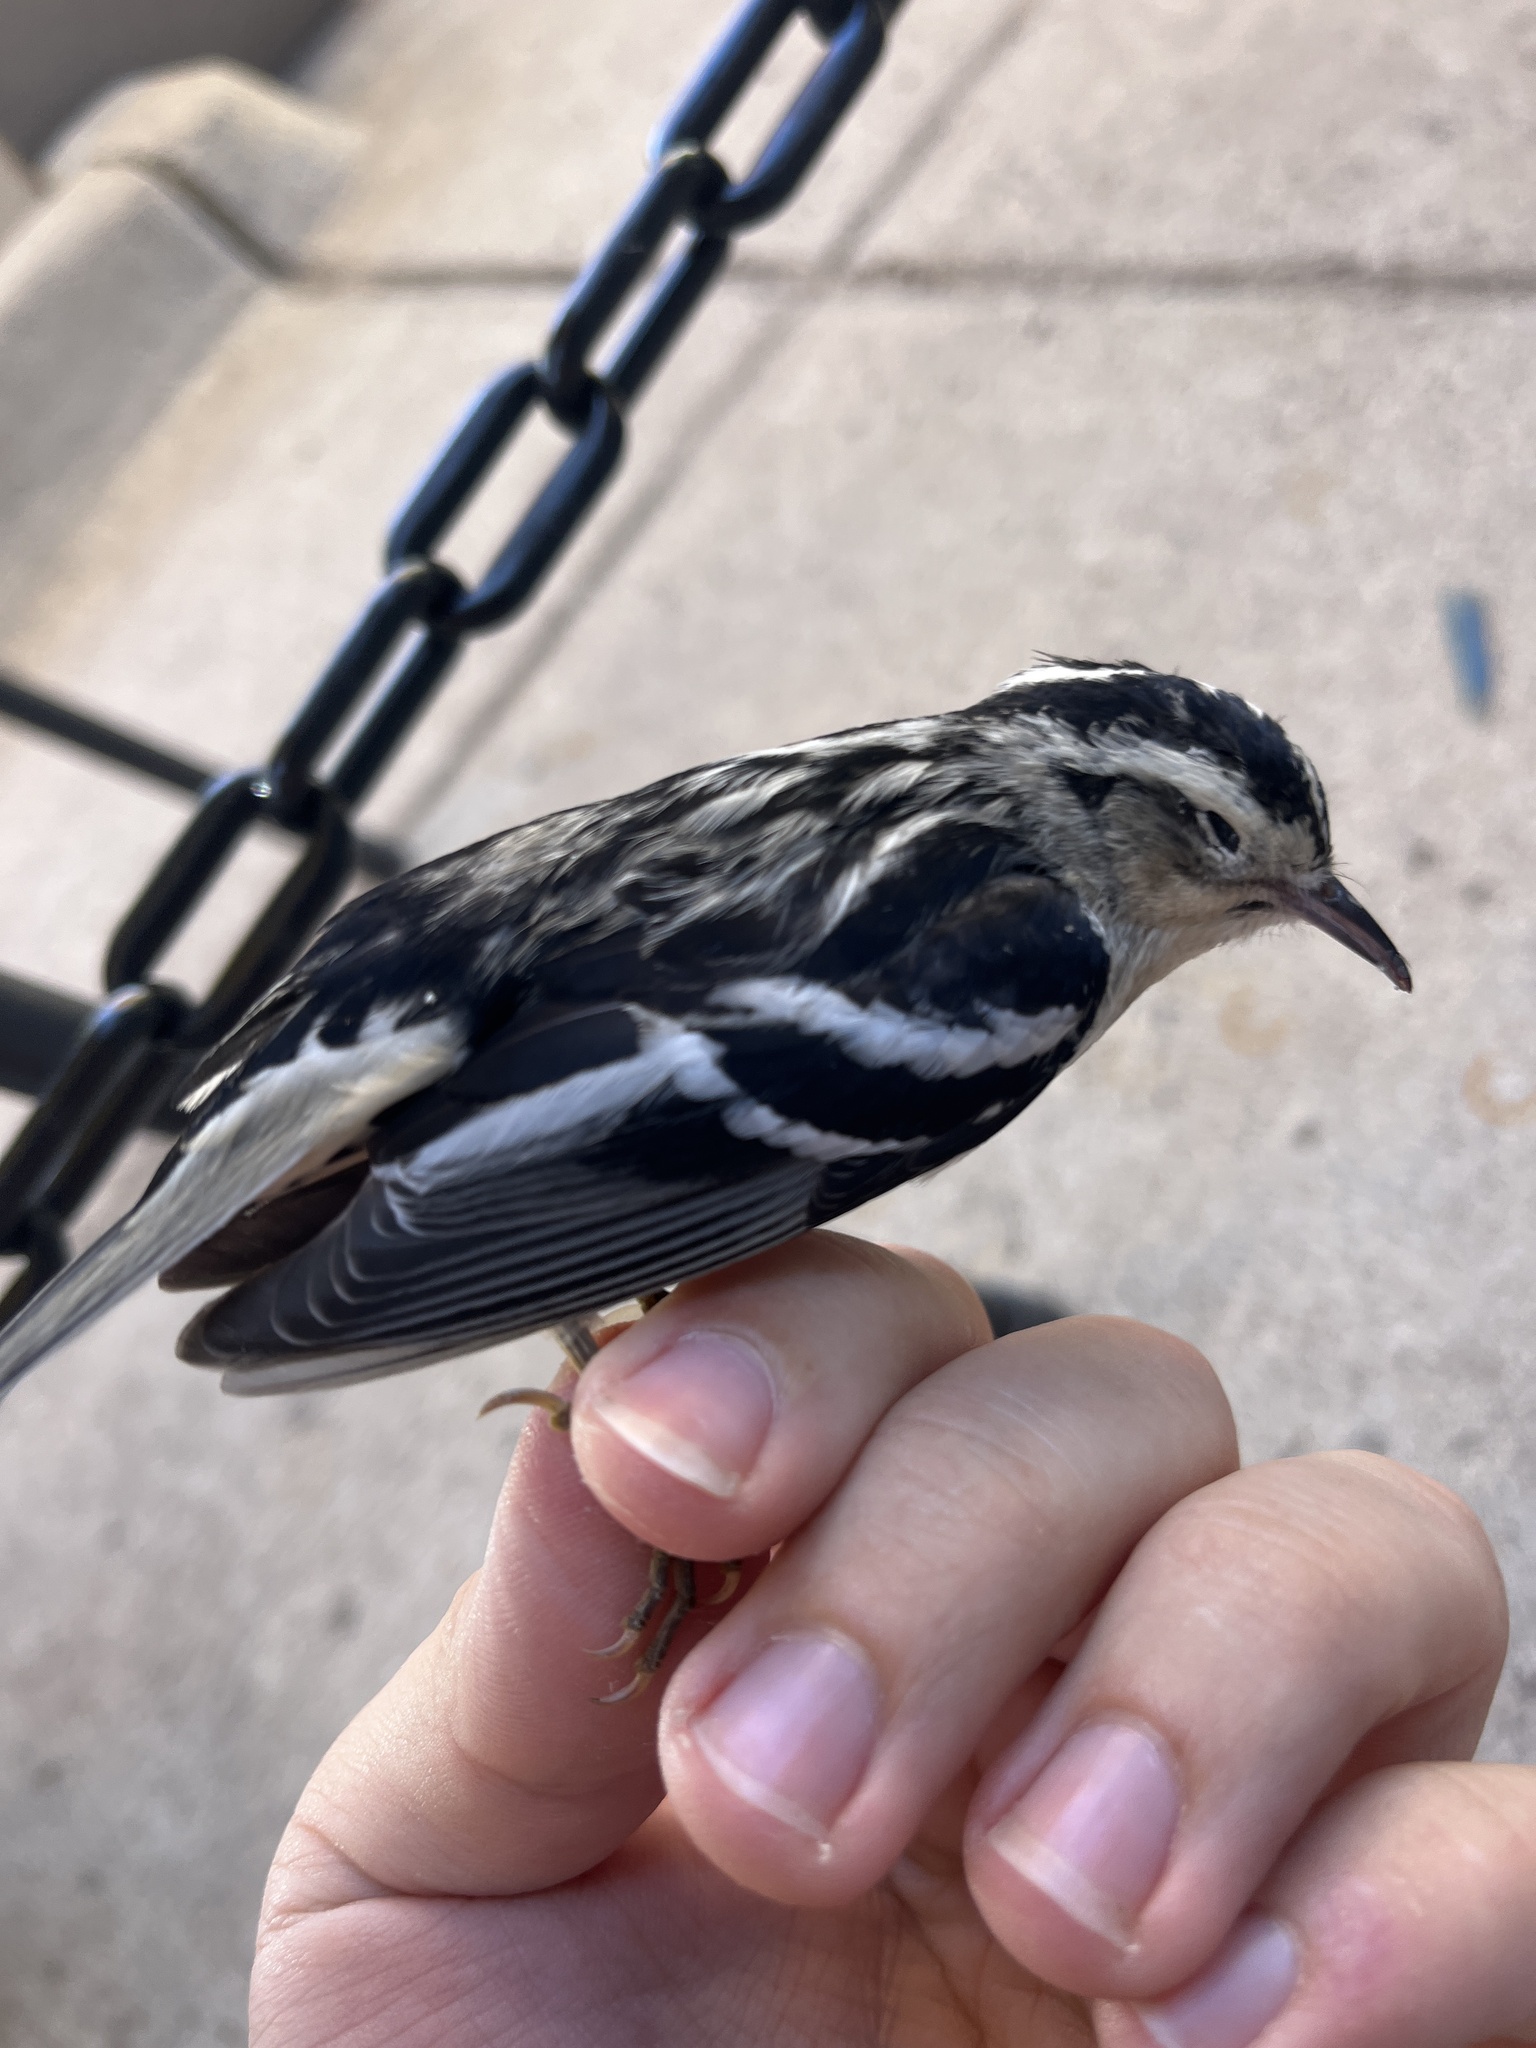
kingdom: Animalia
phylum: Chordata
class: Aves
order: Passeriformes
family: Parulidae
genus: Mniotilta
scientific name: Mniotilta varia
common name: Black-and-white warbler
